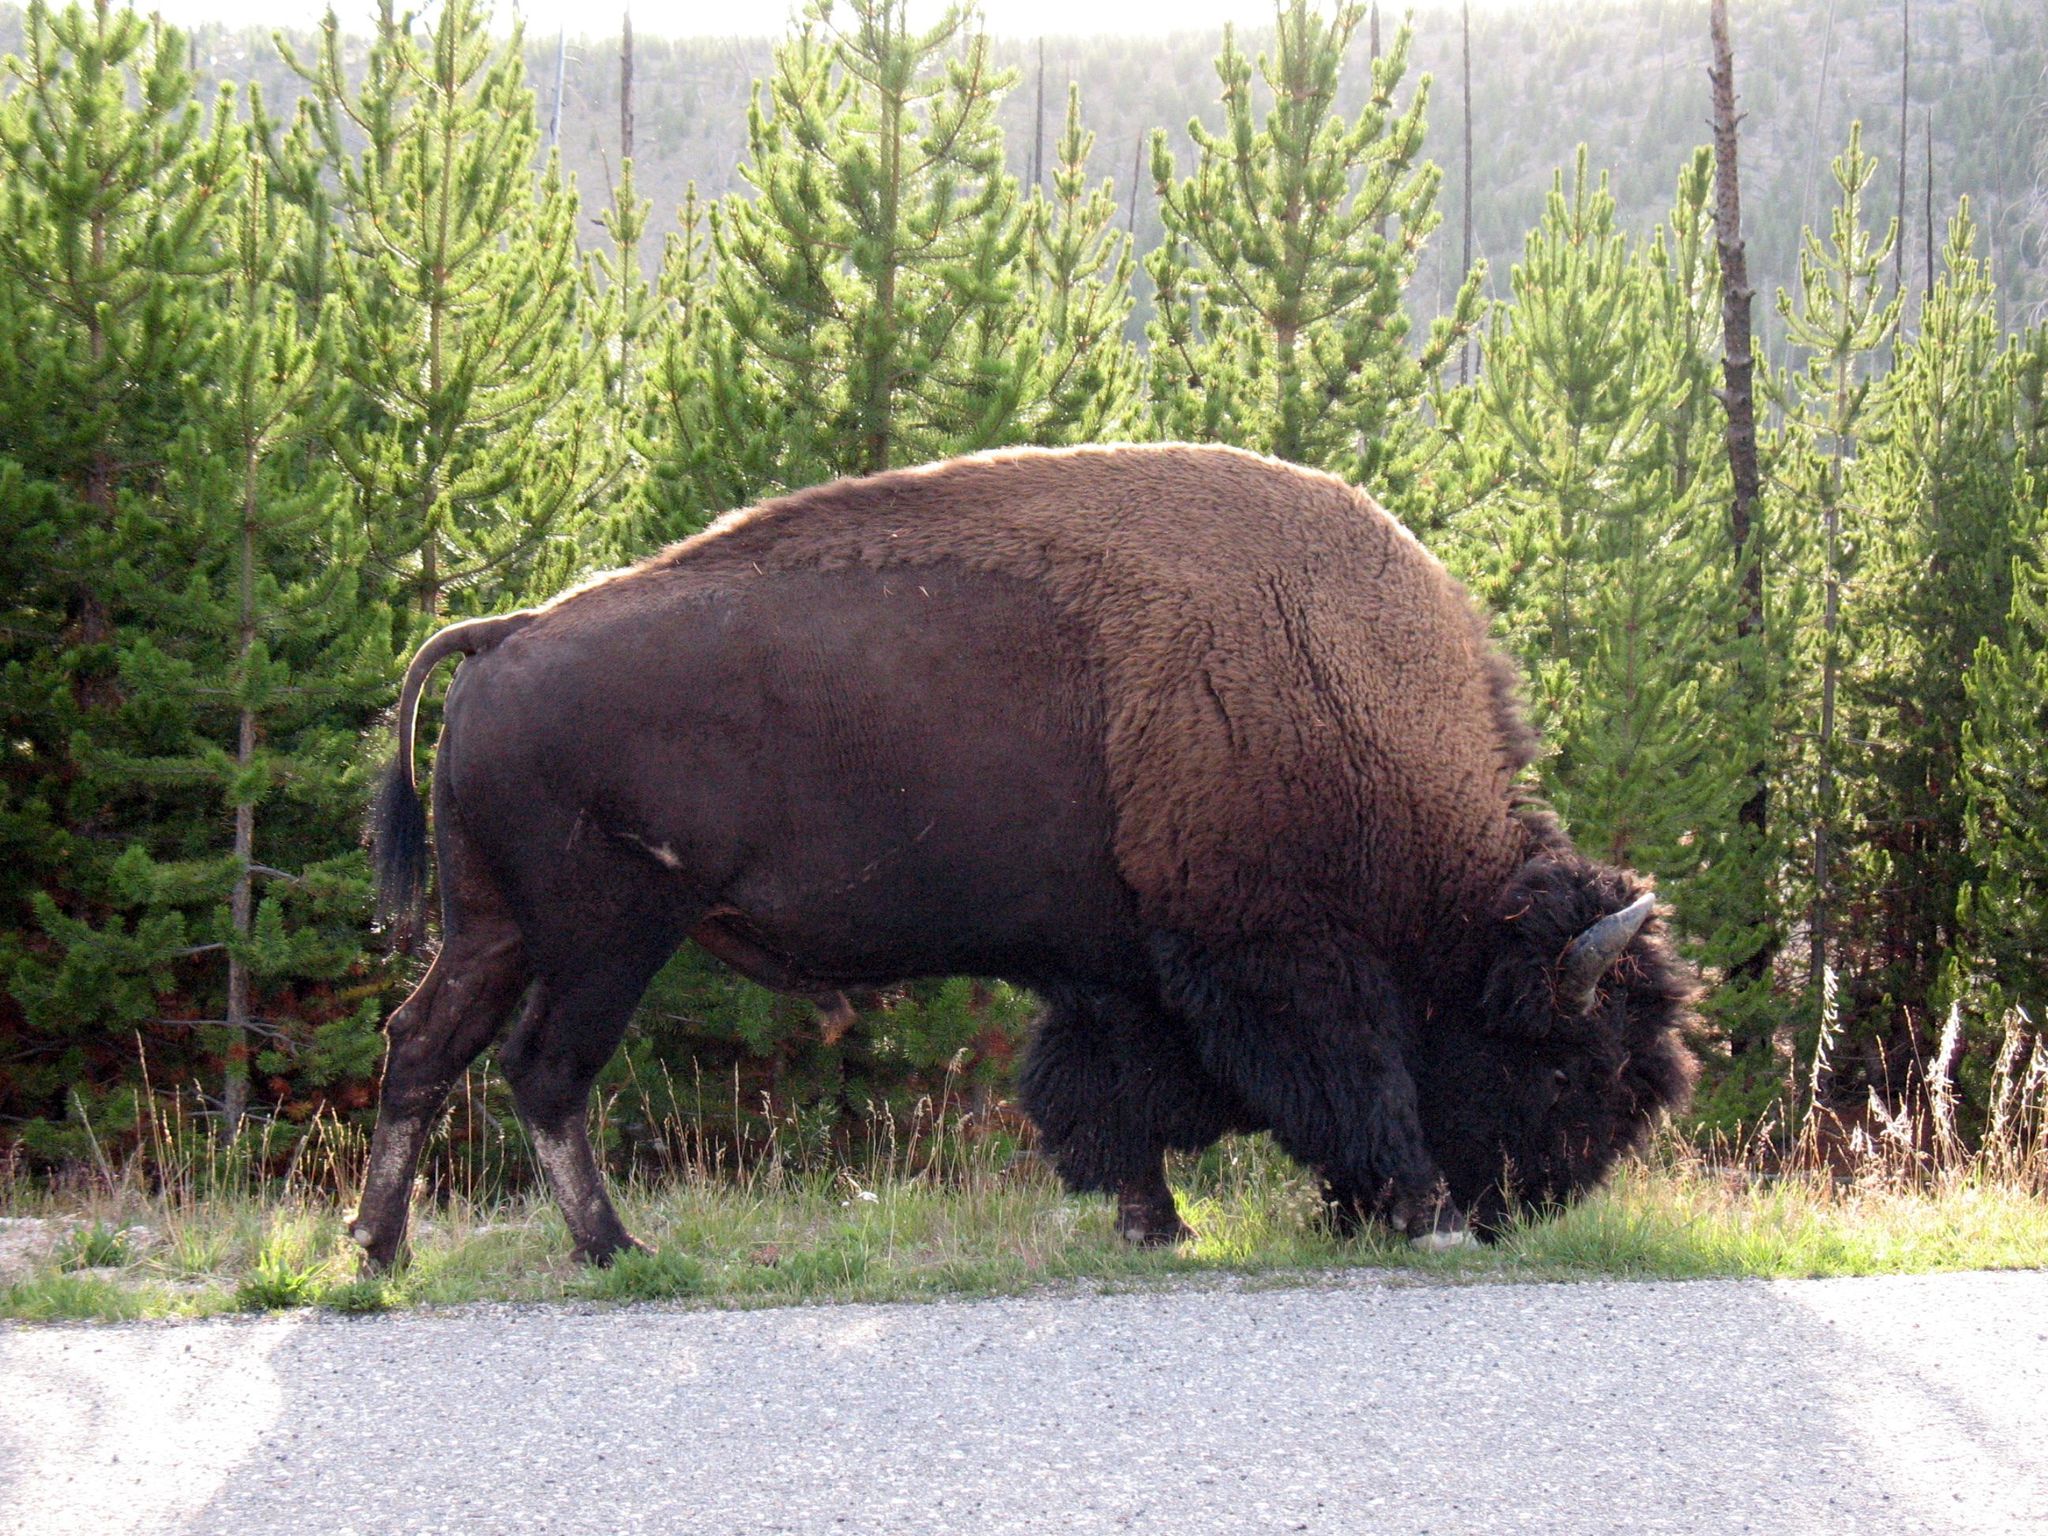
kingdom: Animalia
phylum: Chordata
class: Mammalia
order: Artiodactyla
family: Bovidae
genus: Bison
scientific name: Bison bison
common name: American bison
